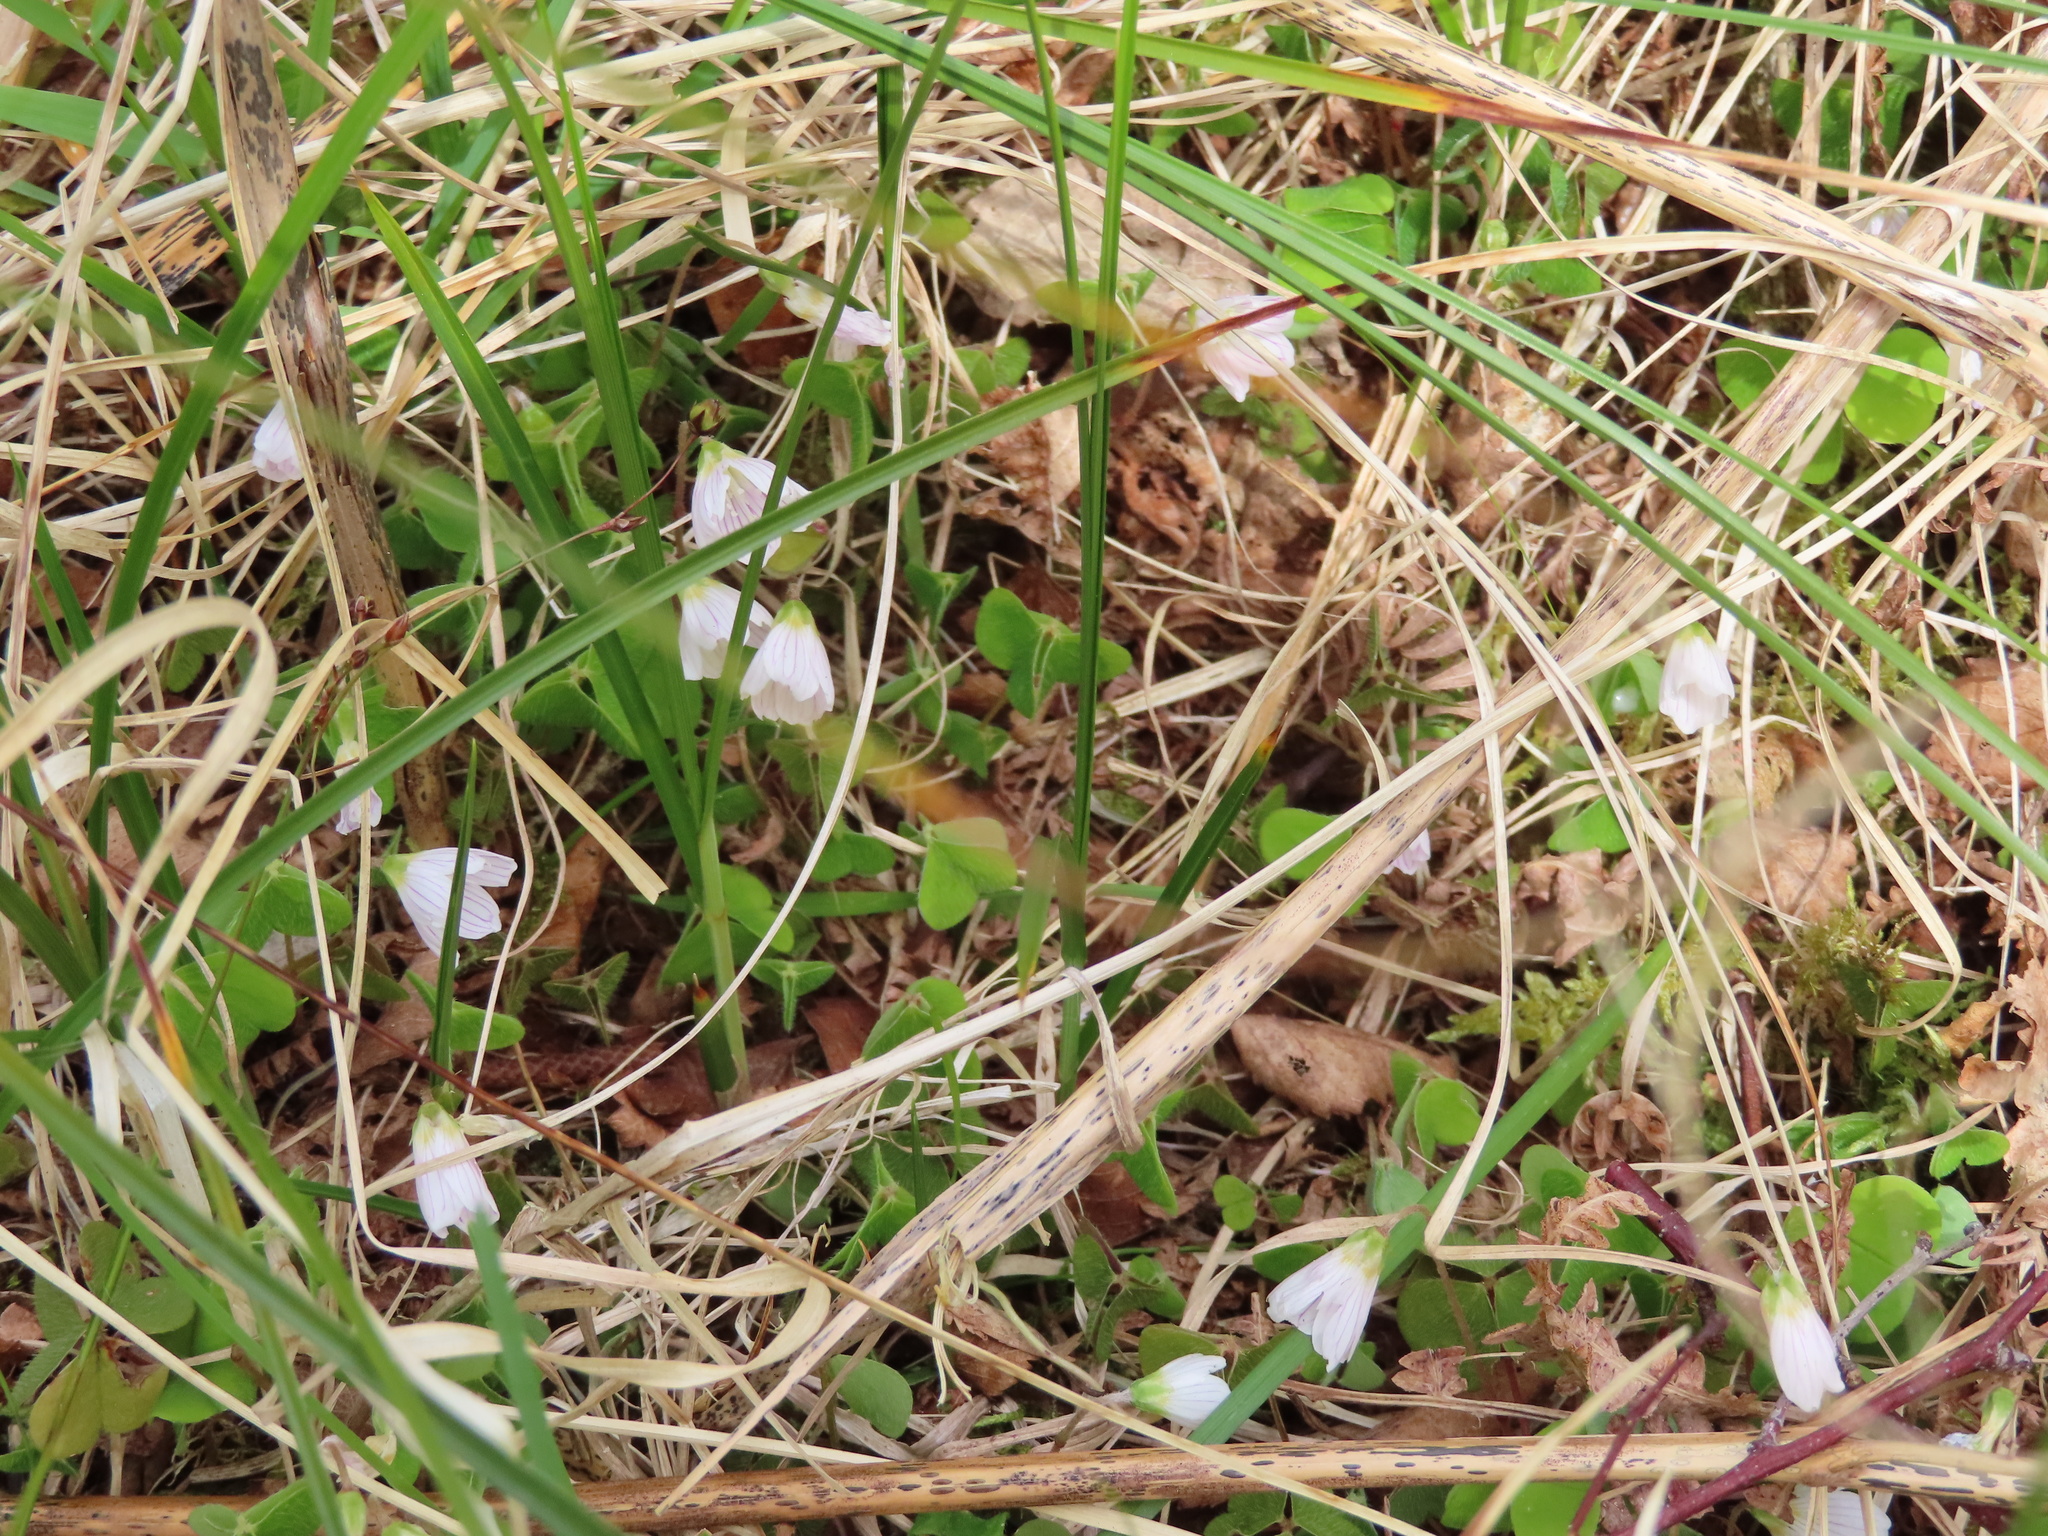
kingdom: Plantae
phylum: Tracheophyta
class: Magnoliopsida
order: Oxalidales
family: Oxalidaceae
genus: Oxalis
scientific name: Oxalis acetosella
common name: Wood-sorrel
